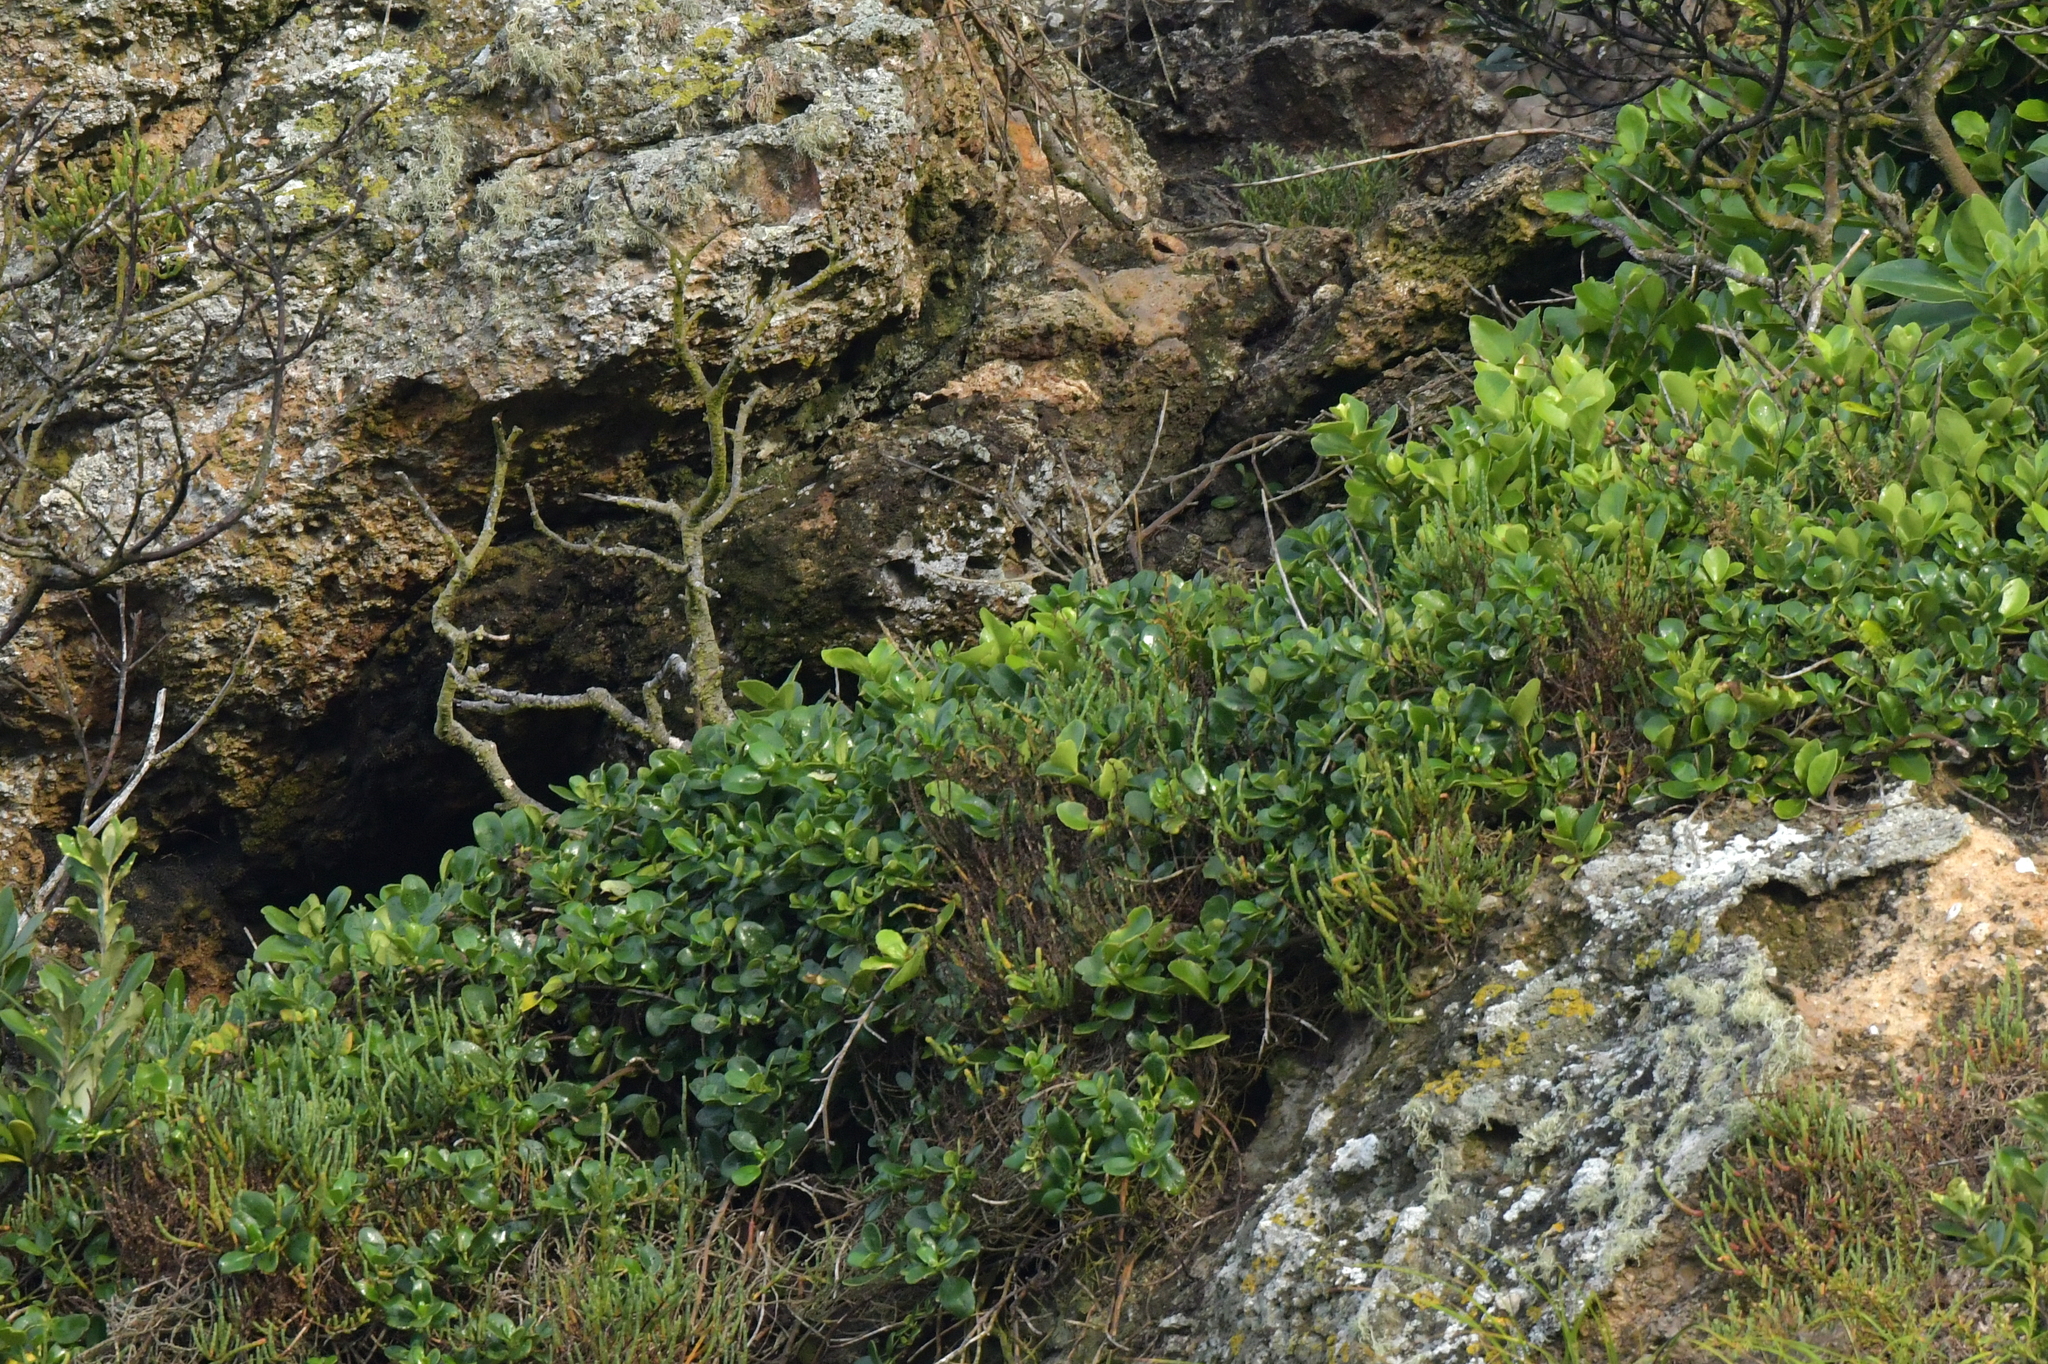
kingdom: Plantae
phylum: Tracheophyta
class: Magnoliopsida
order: Gentianales
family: Rubiaceae
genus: Coprosma
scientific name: Coprosma repens
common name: Tree bedstraw
